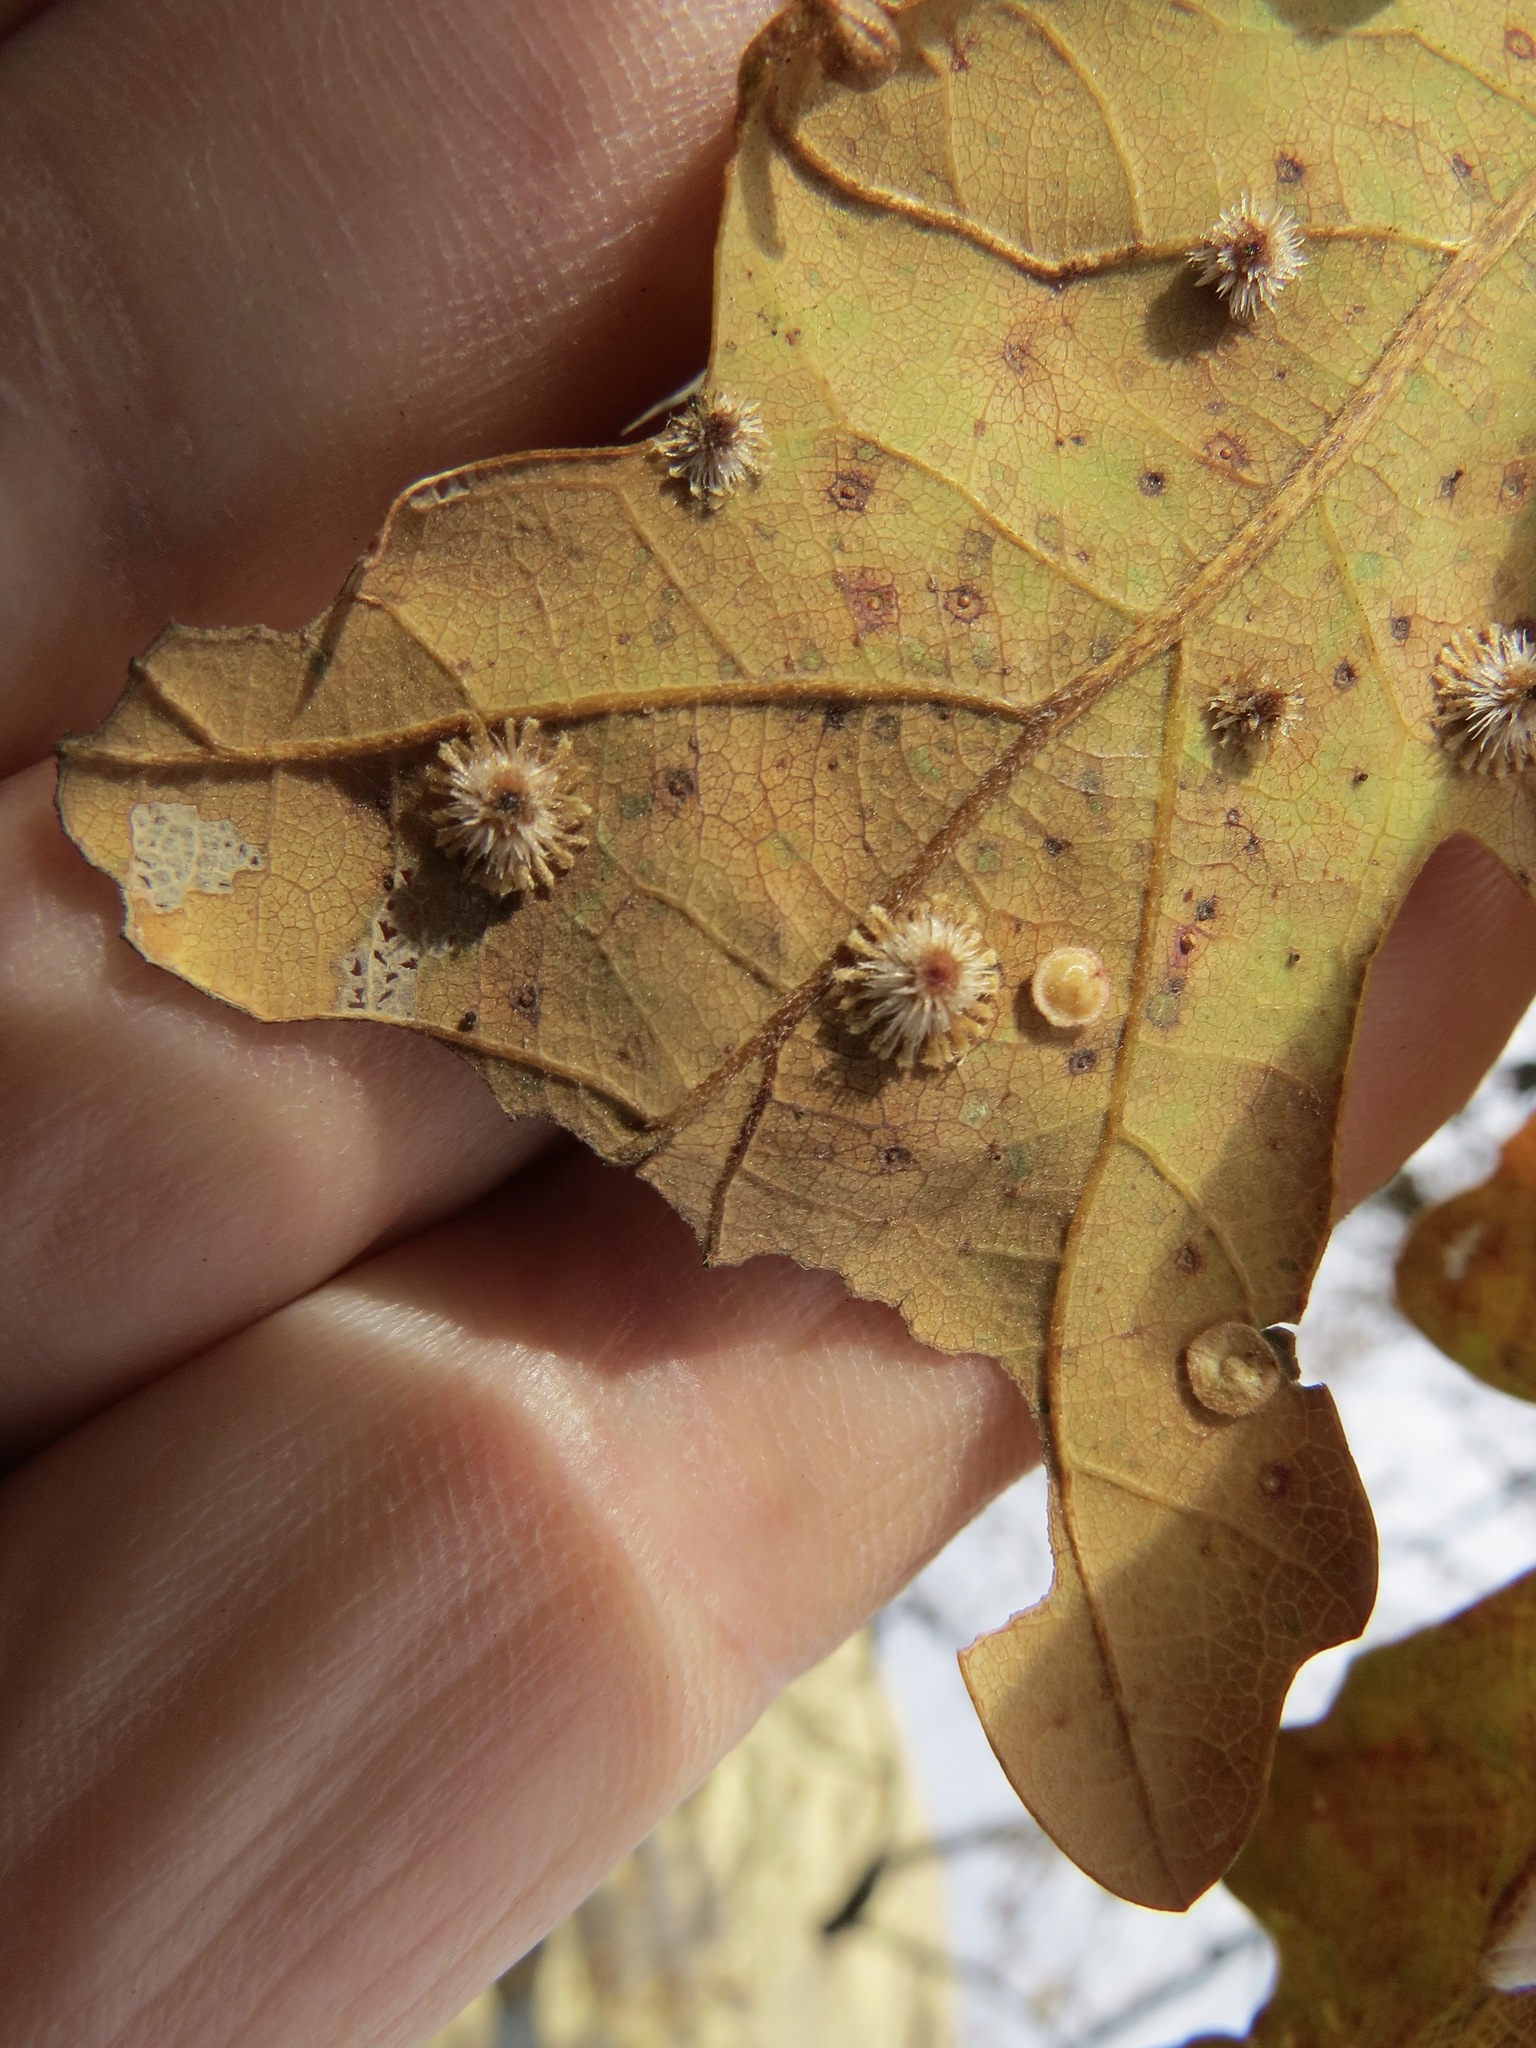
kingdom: Animalia
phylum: Arthropoda
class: Insecta
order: Hymenoptera
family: Cynipidae
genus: Andricus
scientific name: Andricus
